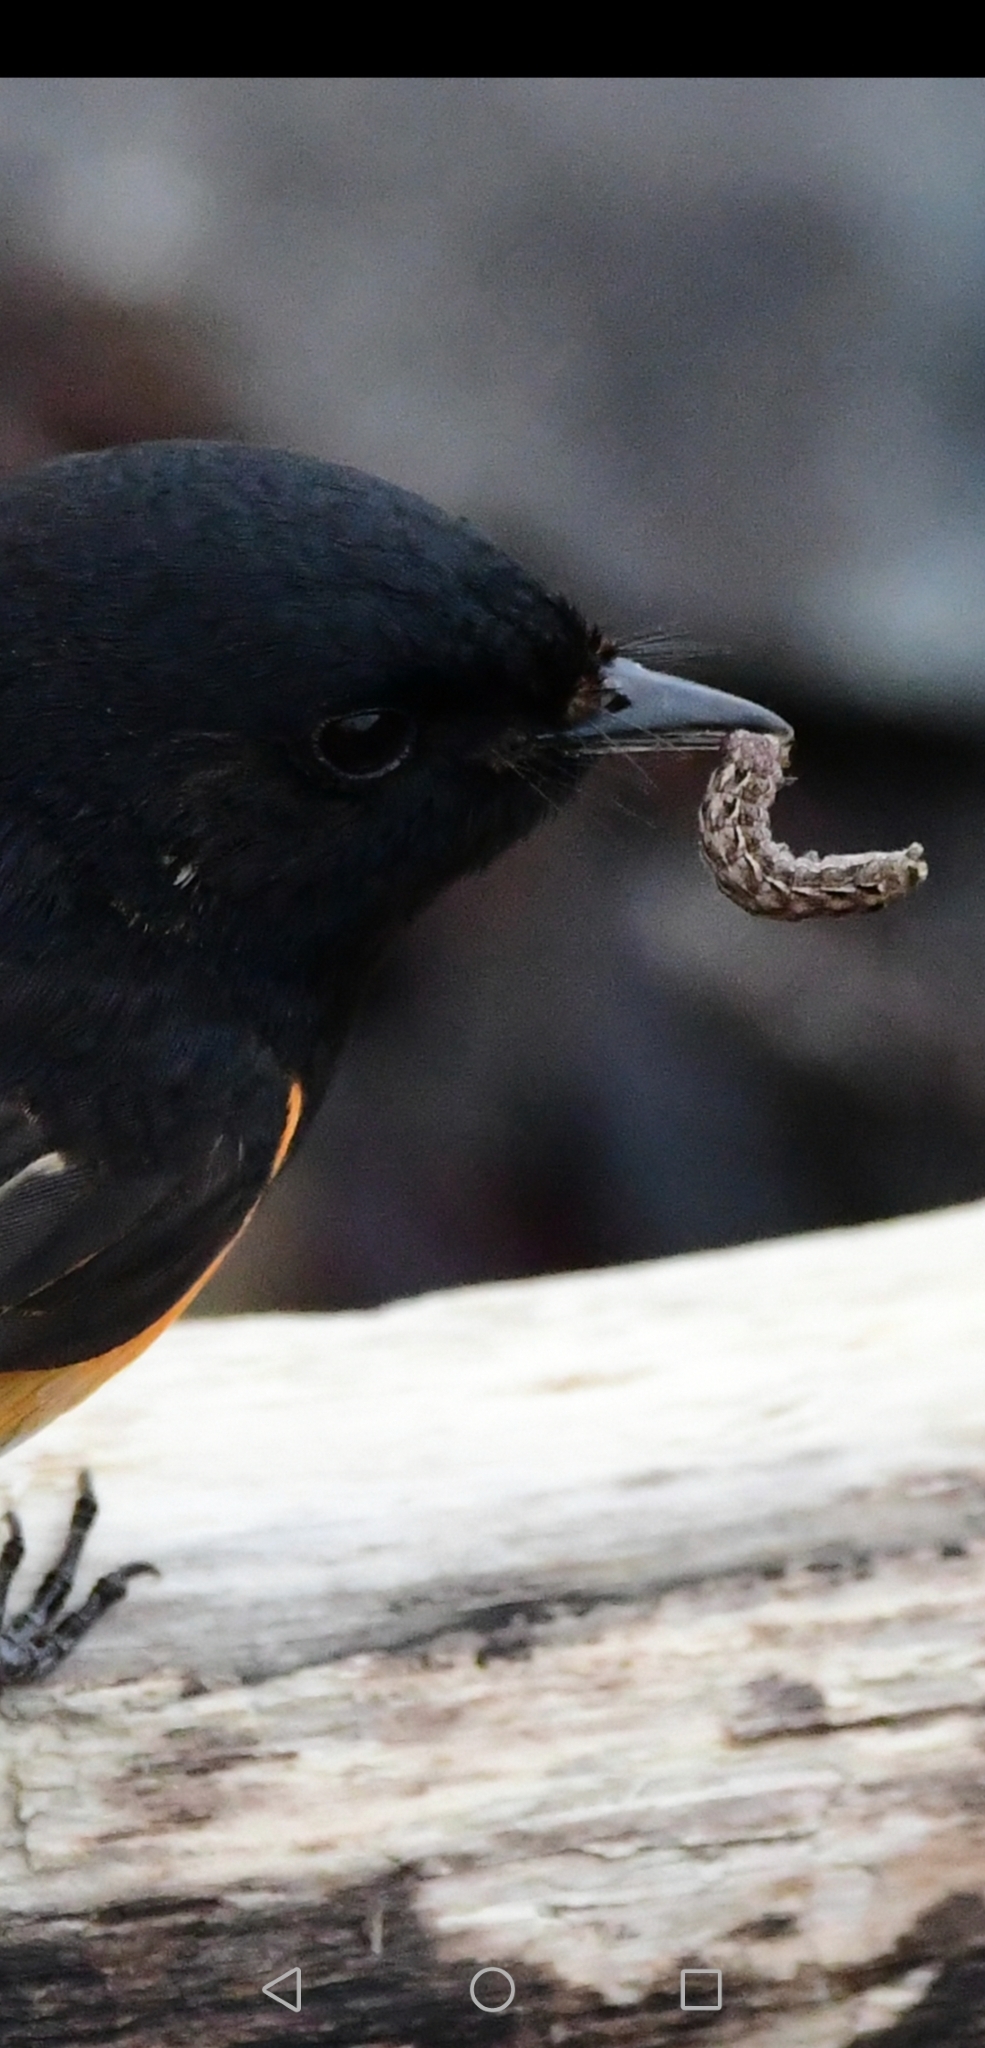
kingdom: Animalia
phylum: Chordata
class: Aves
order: Passeriformes
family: Parulidae
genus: Setophaga
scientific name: Setophaga ruticilla
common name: American redstart
